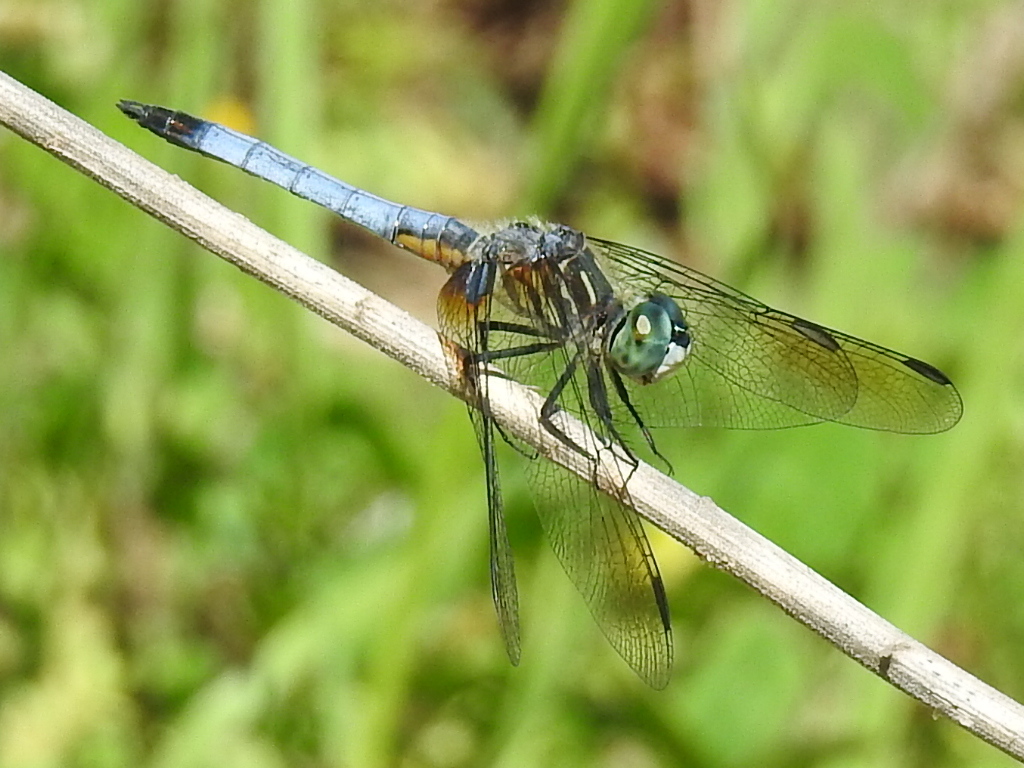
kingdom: Animalia
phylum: Arthropoda
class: Insecta
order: Odonata
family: Libellulidae
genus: Pachydiplax
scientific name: Pachydiplax longipennis
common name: Blue dasher
